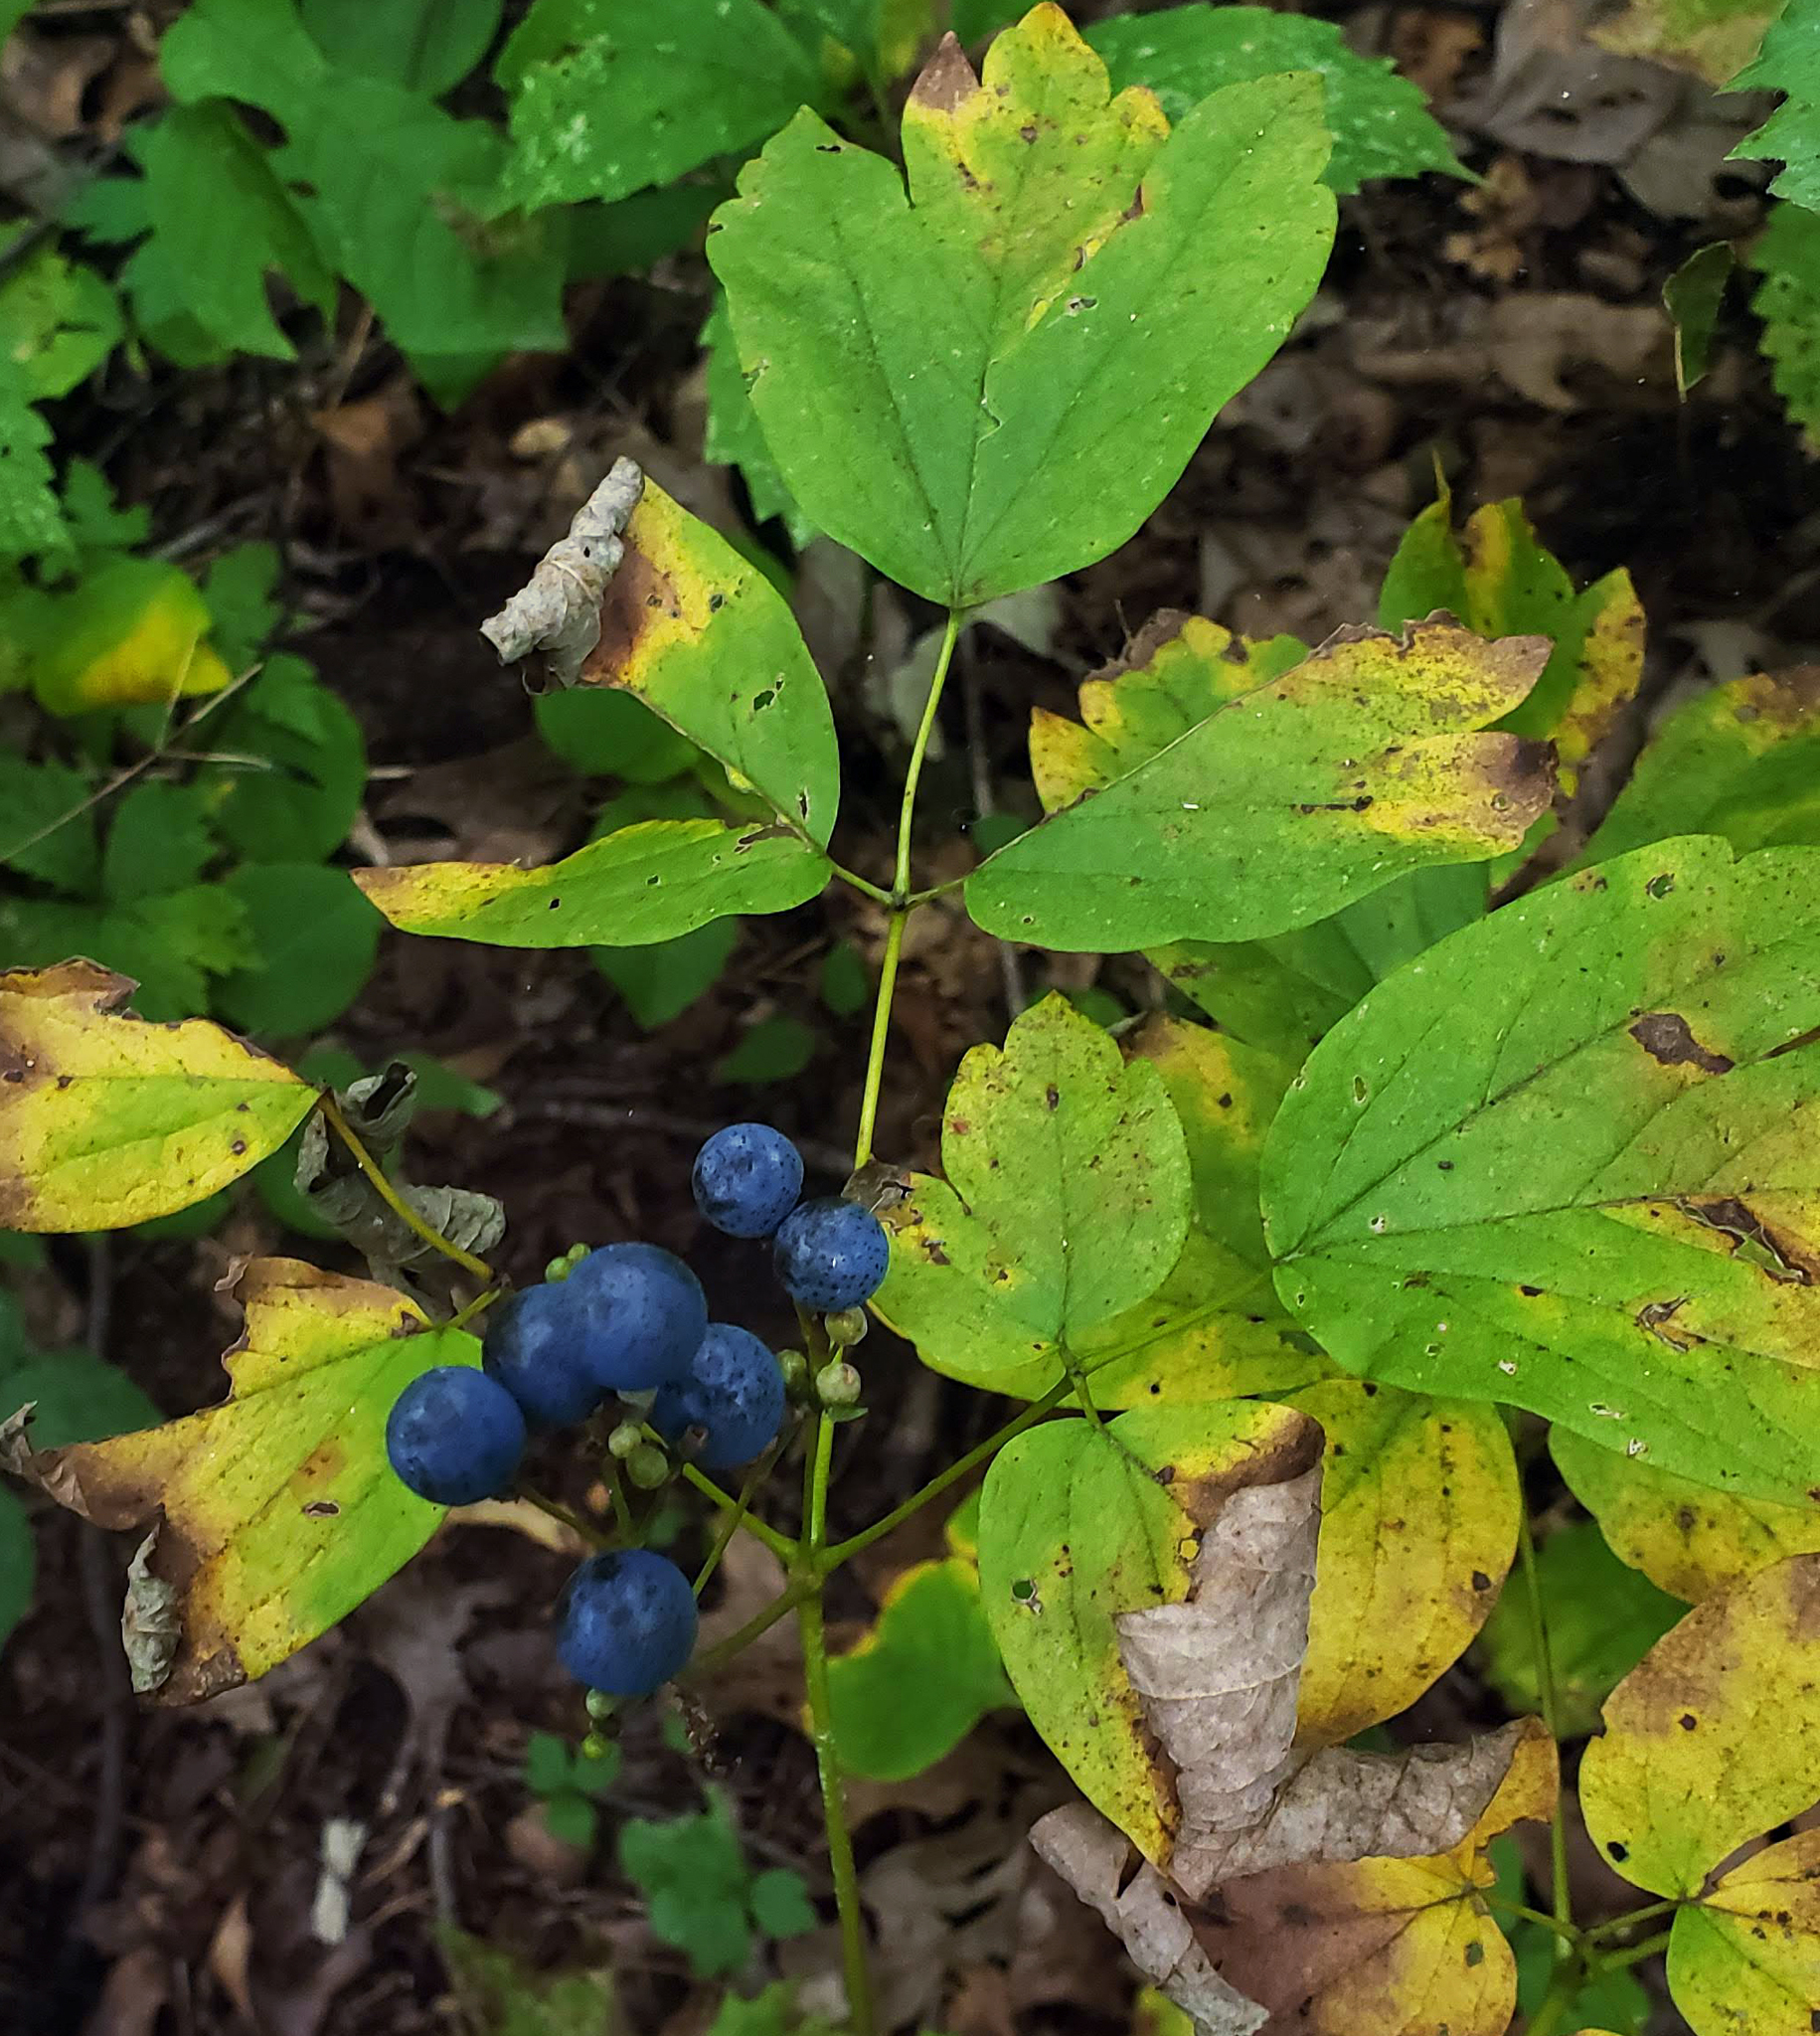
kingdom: Plantae
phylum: Tracheophyta
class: Magnoliopsida
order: Ranunculales
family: Berberidaceae
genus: Caulophyllum
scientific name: Caulophyllum thalictroides
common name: Blue cohosh
